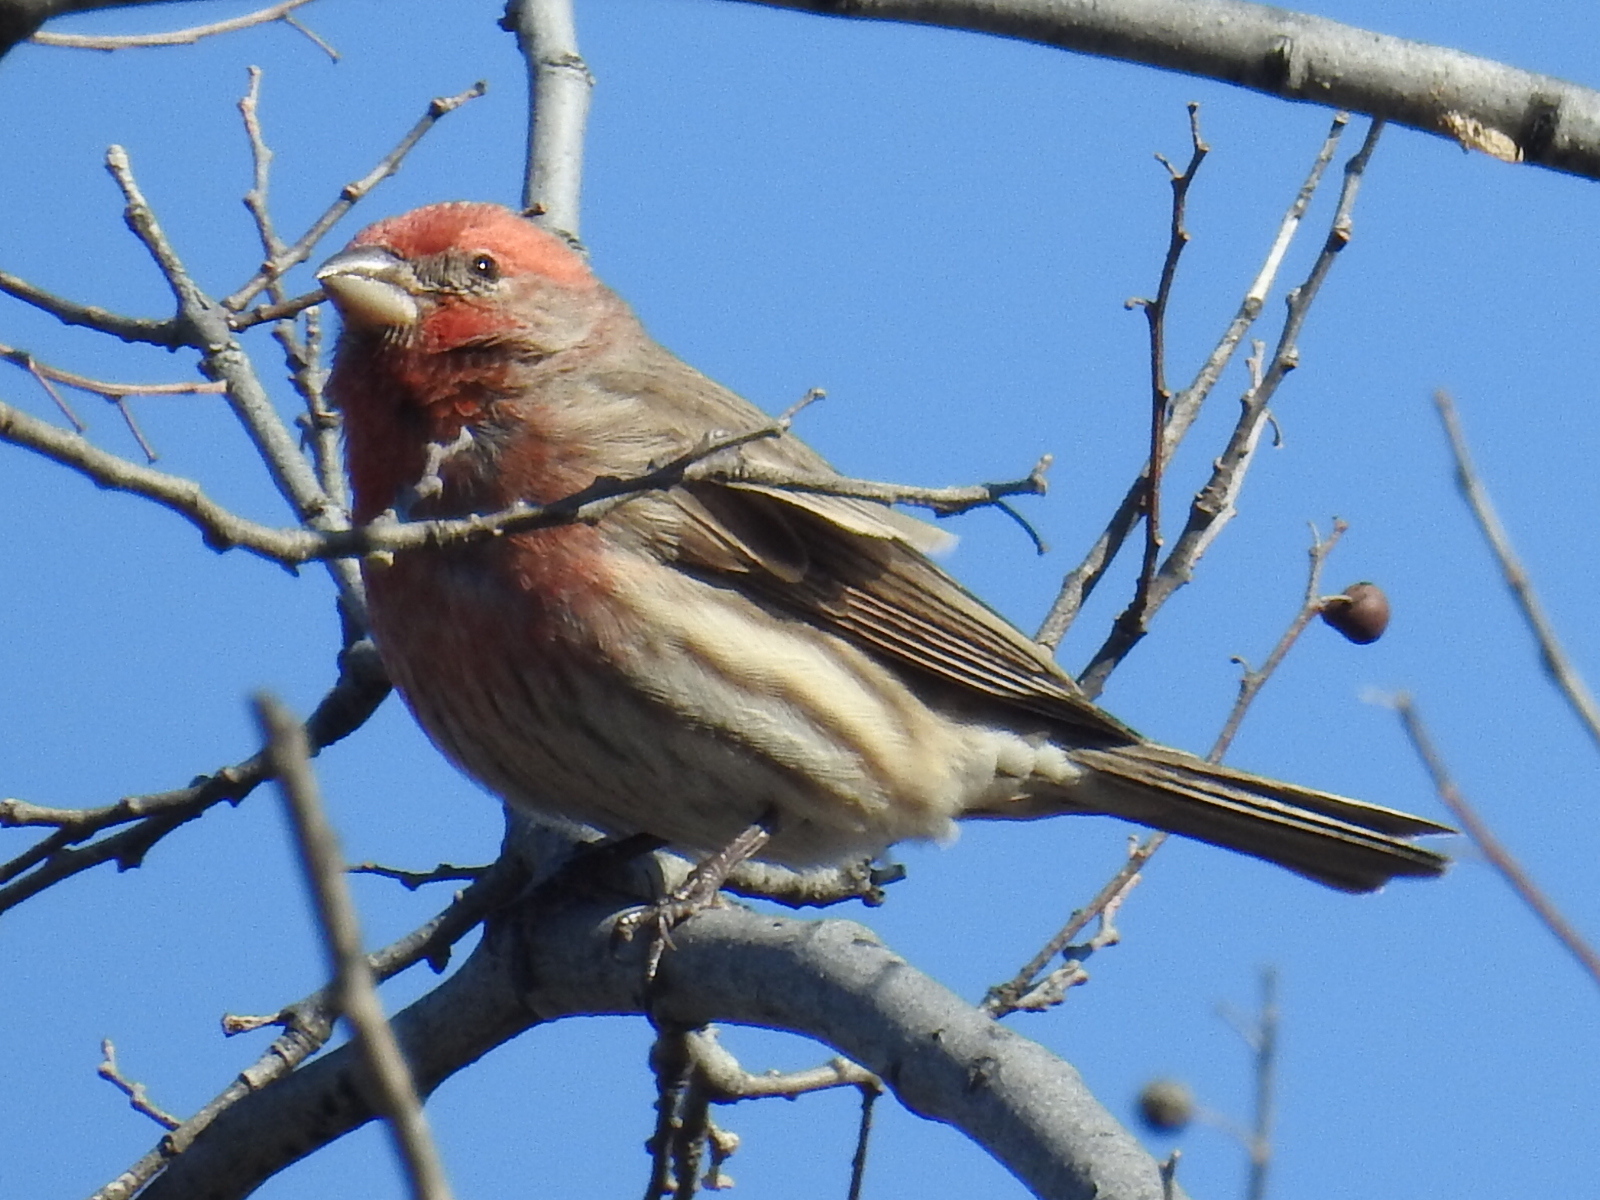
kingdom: Animalia
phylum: Chordata
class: Aves
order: Passeriformes
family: Fringillidae
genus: Haemorhous
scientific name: Haemorhous mexicanus
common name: House finch
